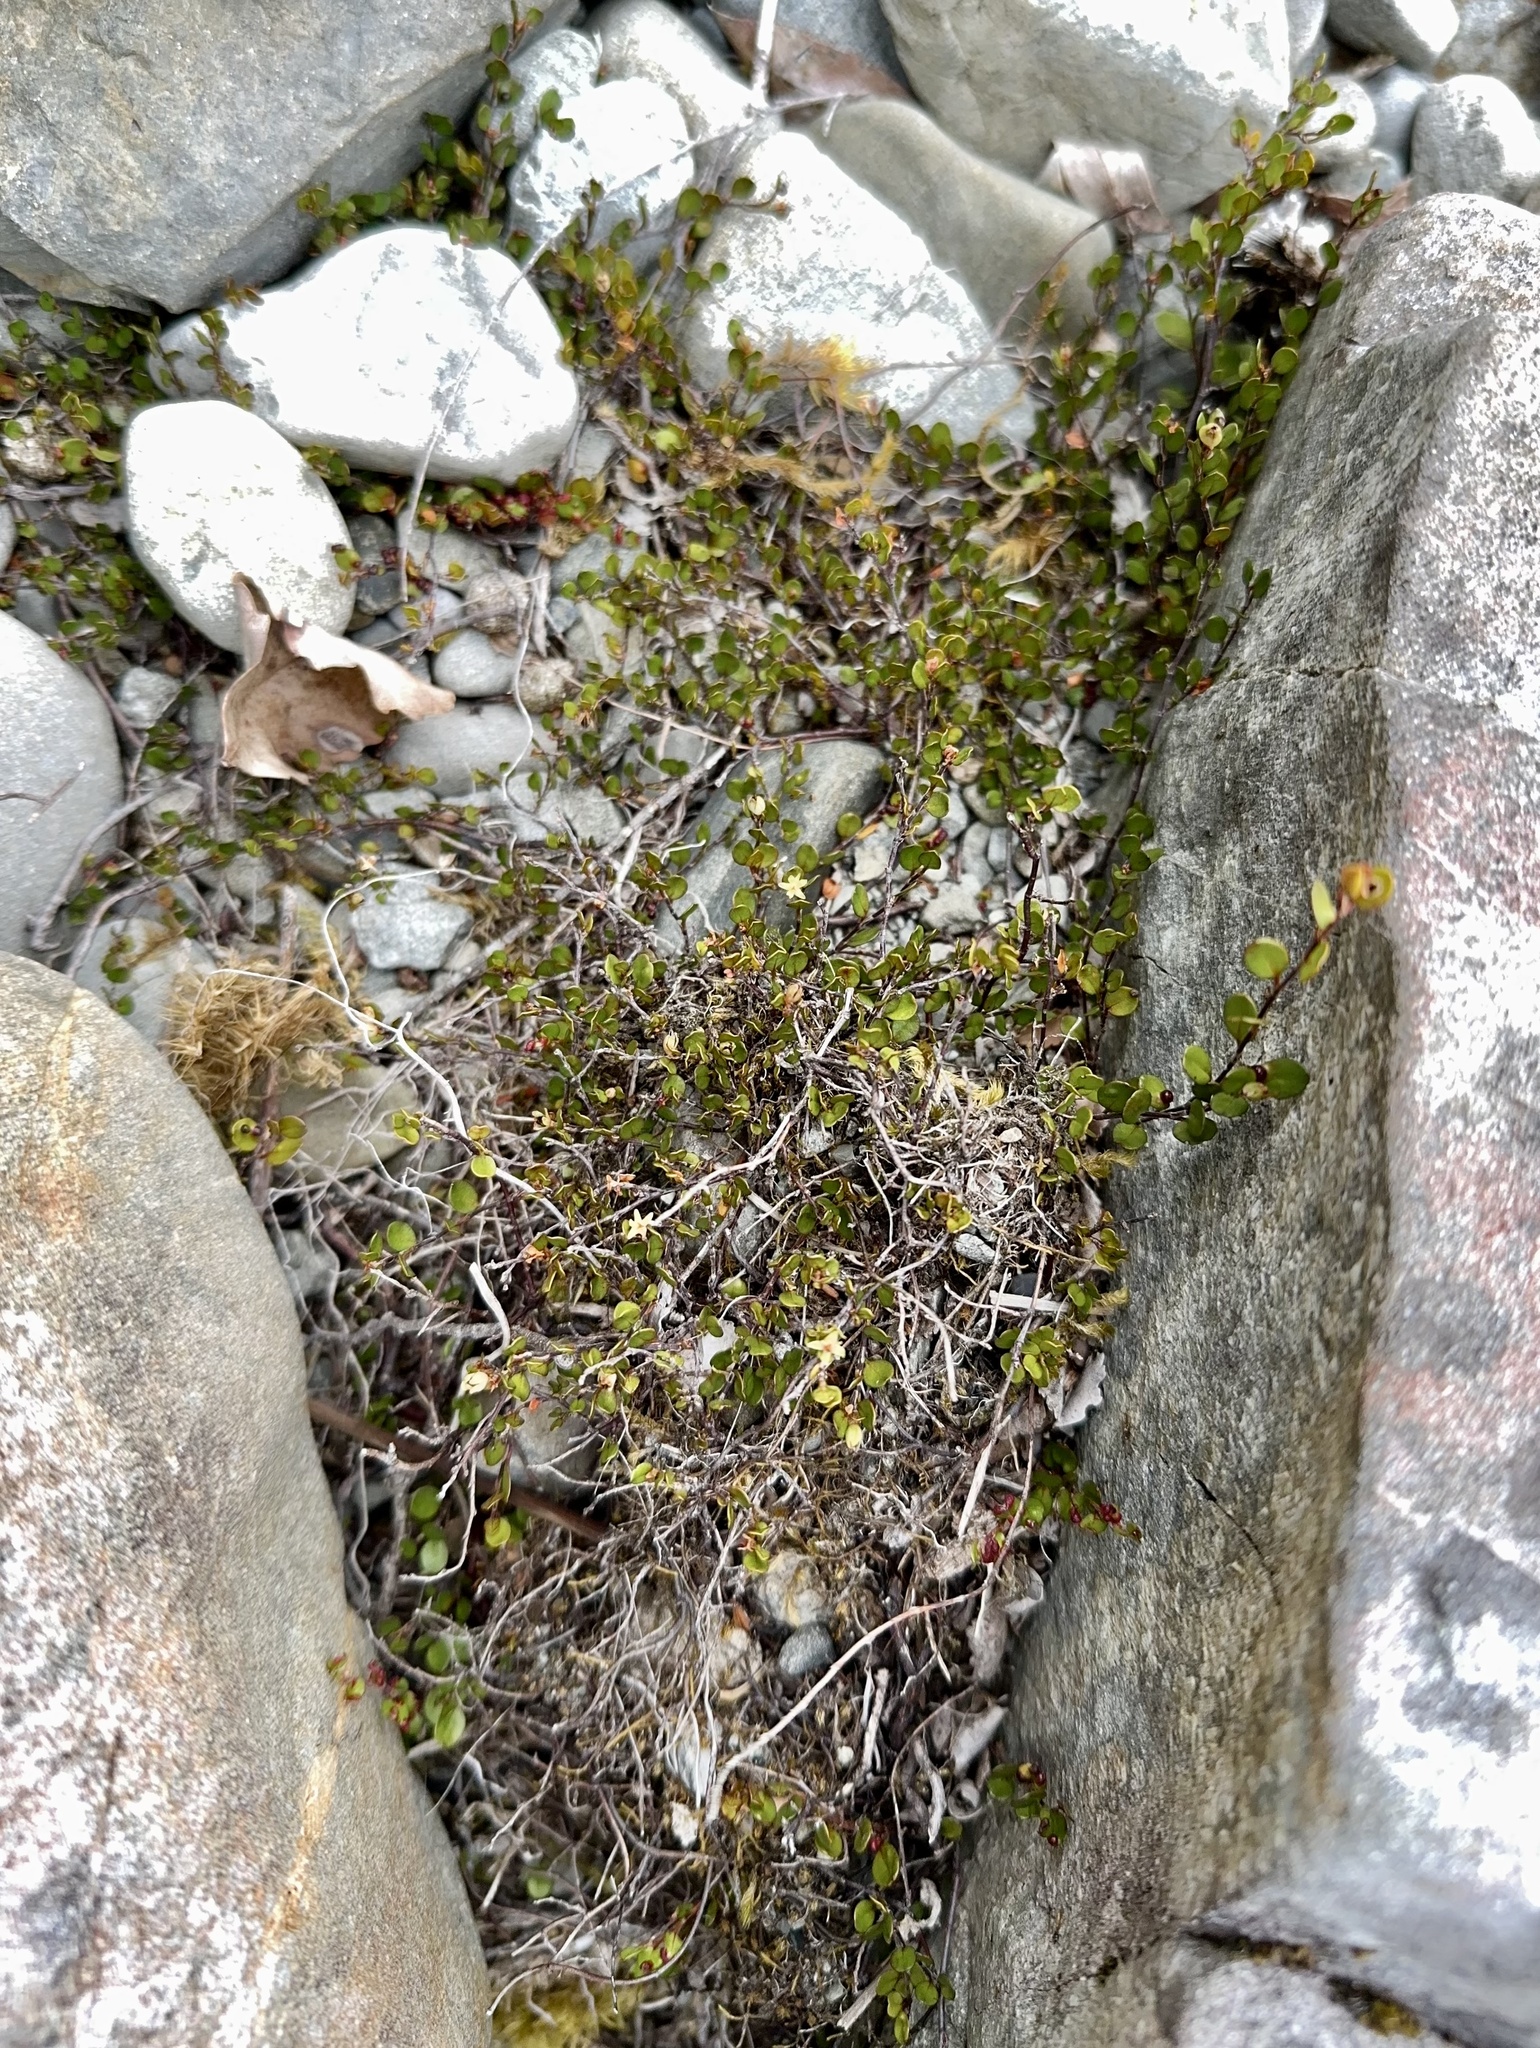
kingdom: Plantae
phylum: Tracheophyta
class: Magnoliopsida
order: Caryophyllales
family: Polygonaceae
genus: Muehlenbeckia
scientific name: Muehlenbeckia axillaris
